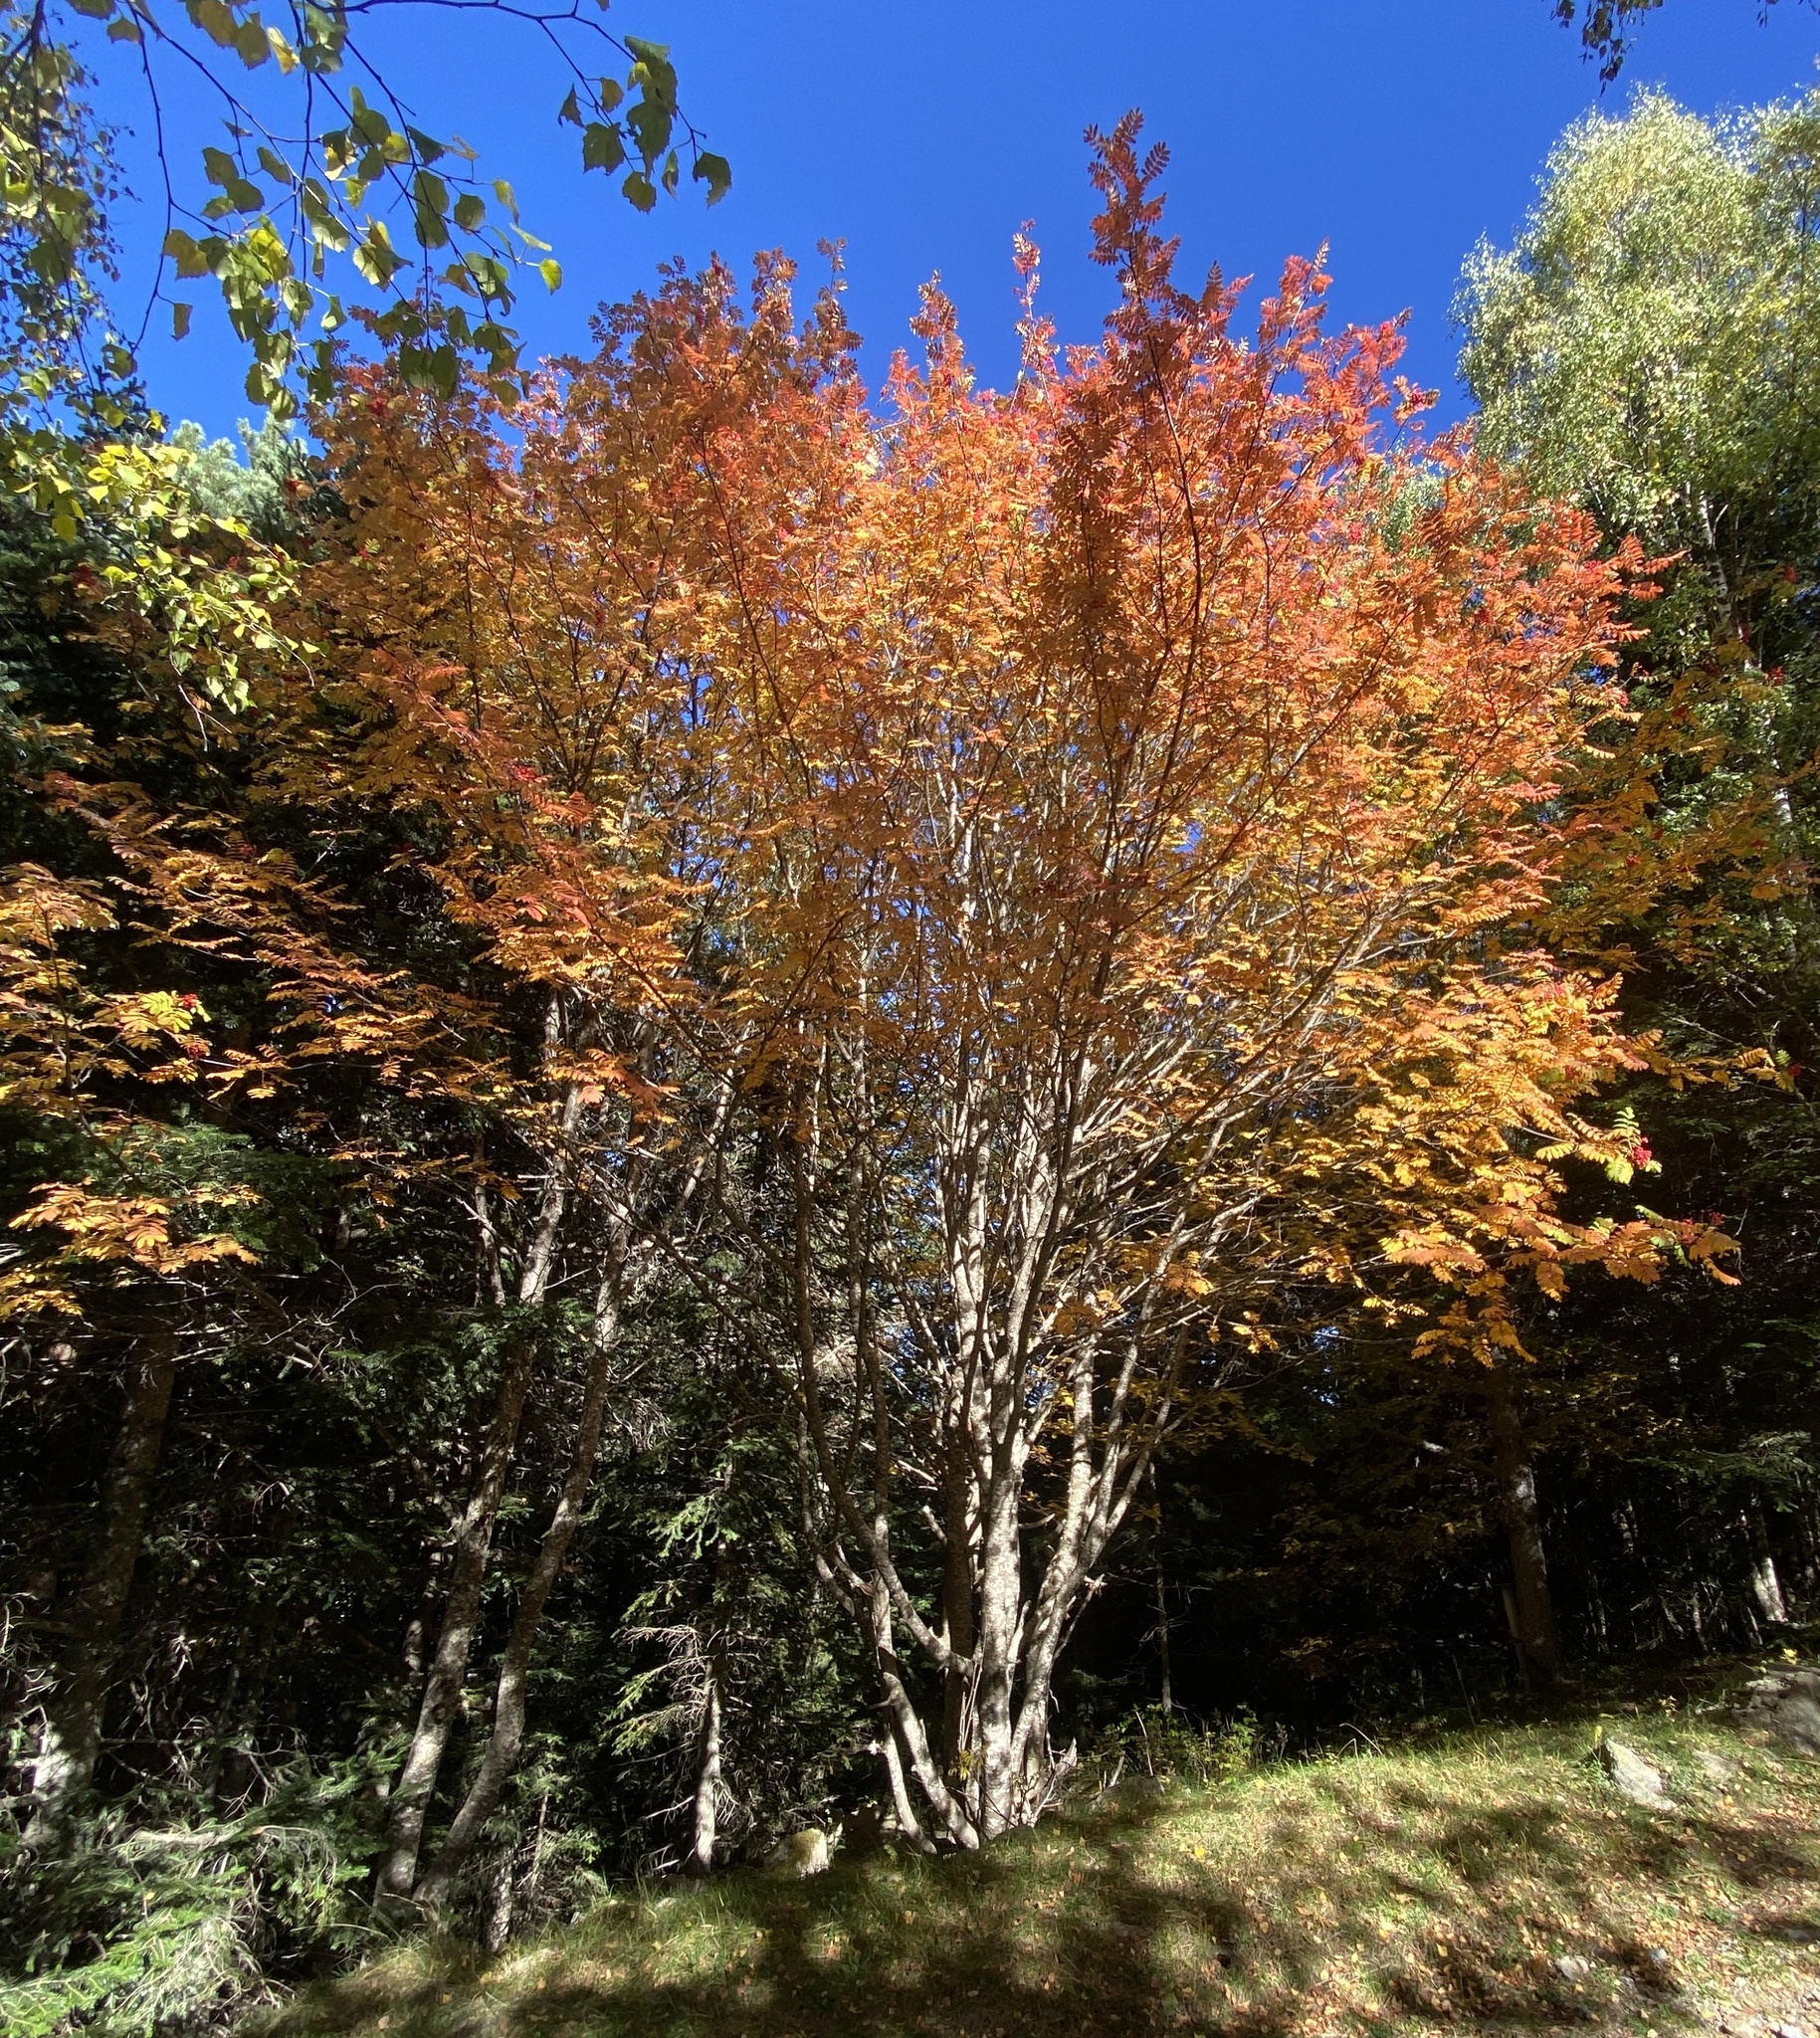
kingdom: Plantae
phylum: Tracheophyta
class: Magnoliopsida
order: Rosales
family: Rosaceae
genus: Sorbus
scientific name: Sorbus aucuparia
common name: Rowan
